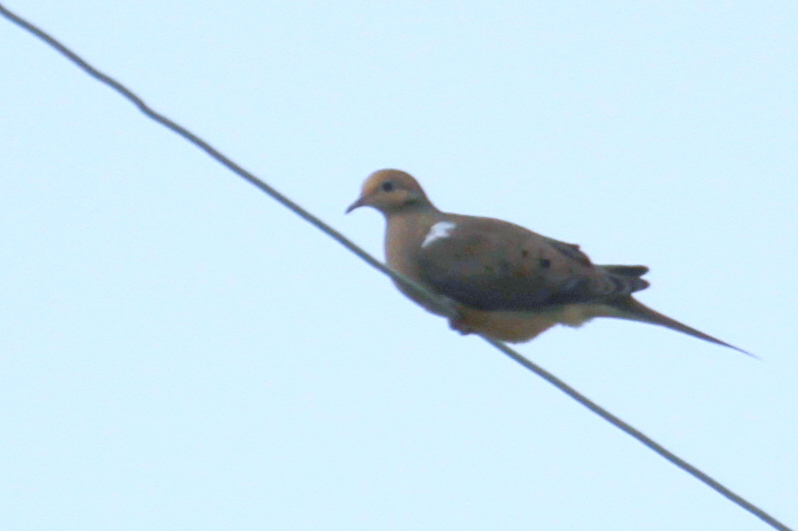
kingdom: Animalia
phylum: Chordata
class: Aves
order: Columbiformes
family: Columbidae
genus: Zenaida
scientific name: Zenaida macroura
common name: Mourning dove
